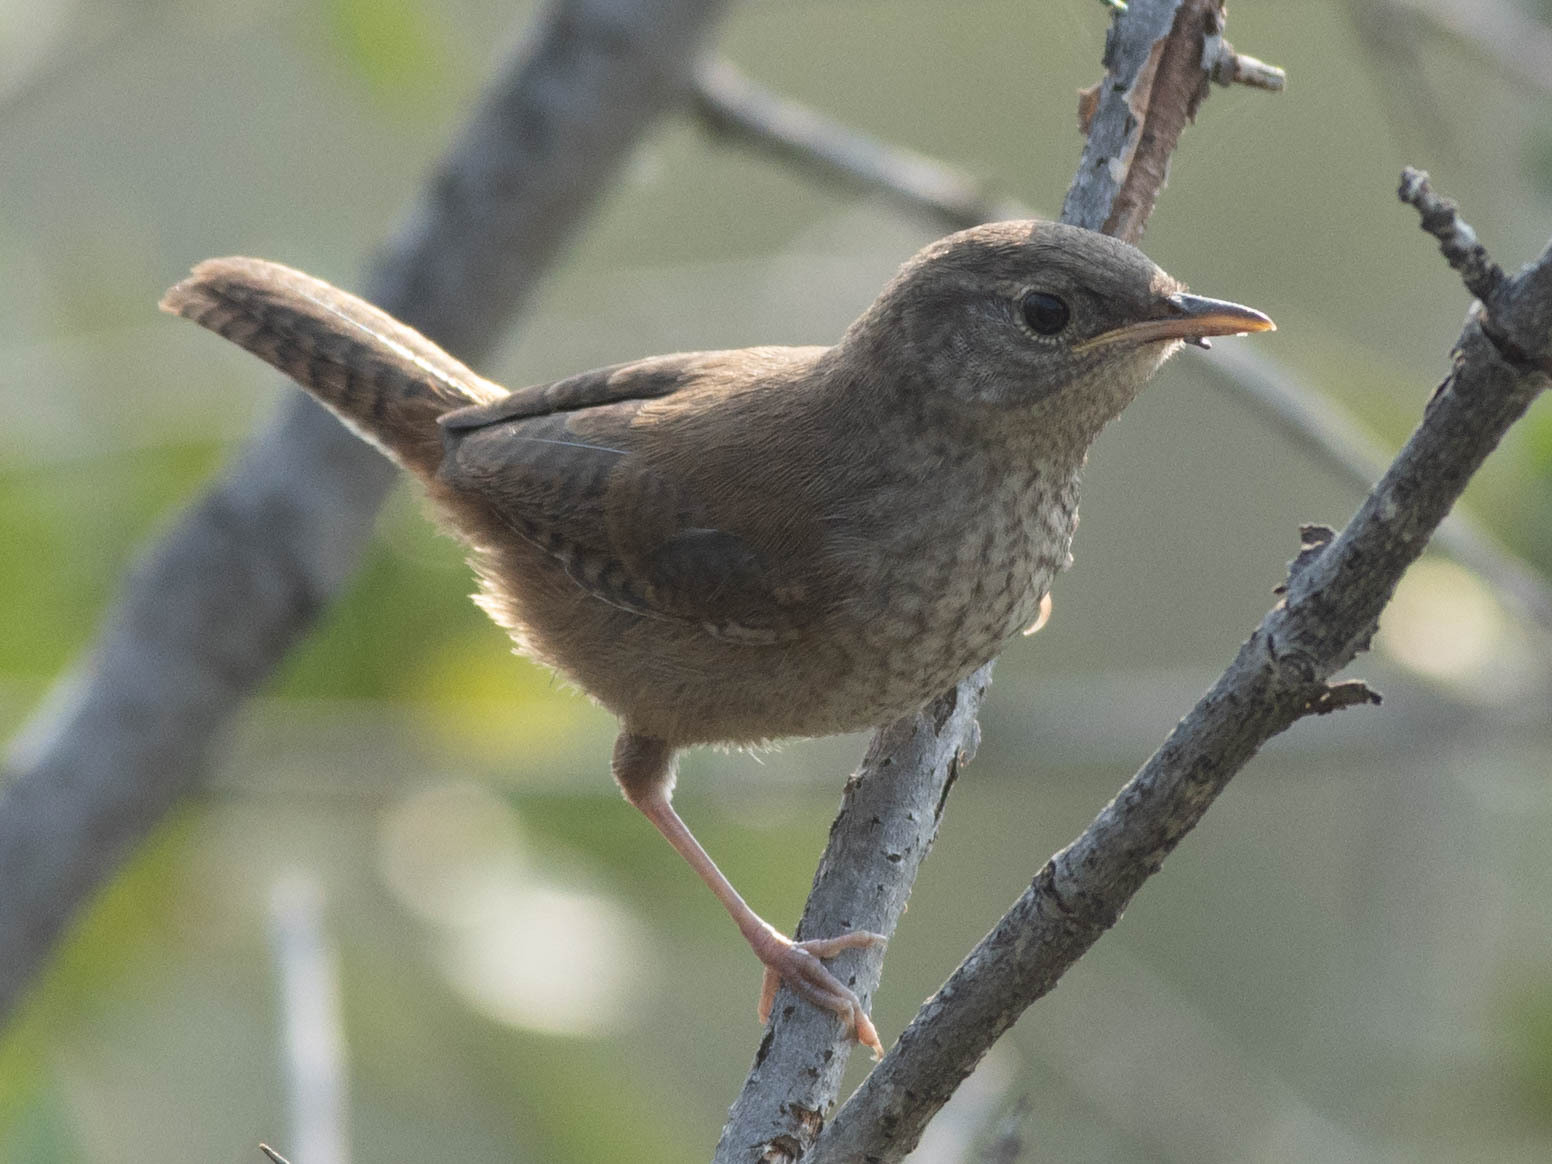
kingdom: Animalia
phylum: Chordata
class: Aves
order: Passeriformes
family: Troglodytidae
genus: Troglodytes
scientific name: Troglodytes aedon
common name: House wren
